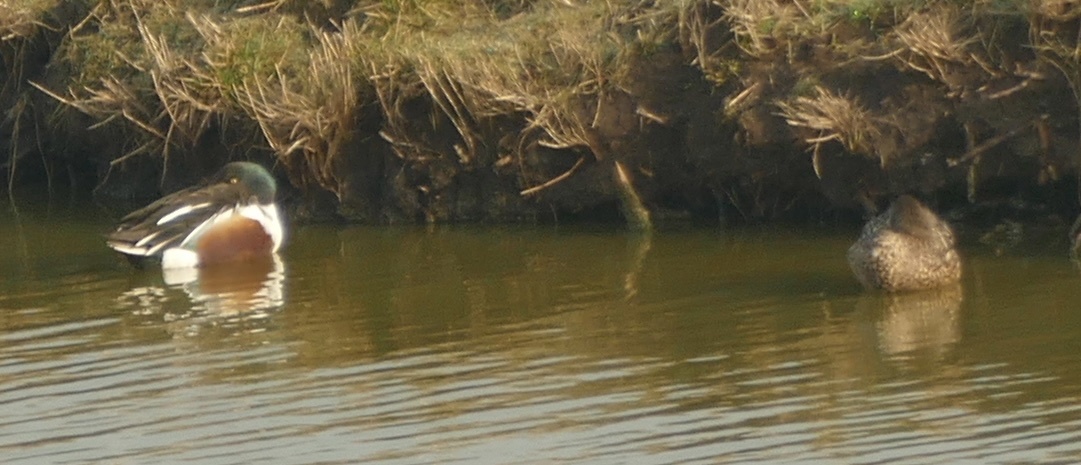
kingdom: Animalia
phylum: Chordata
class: Aves
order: Anseriformes
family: Anatidae
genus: Spatula
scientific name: Spatula clypeata
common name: Northern shoveler
